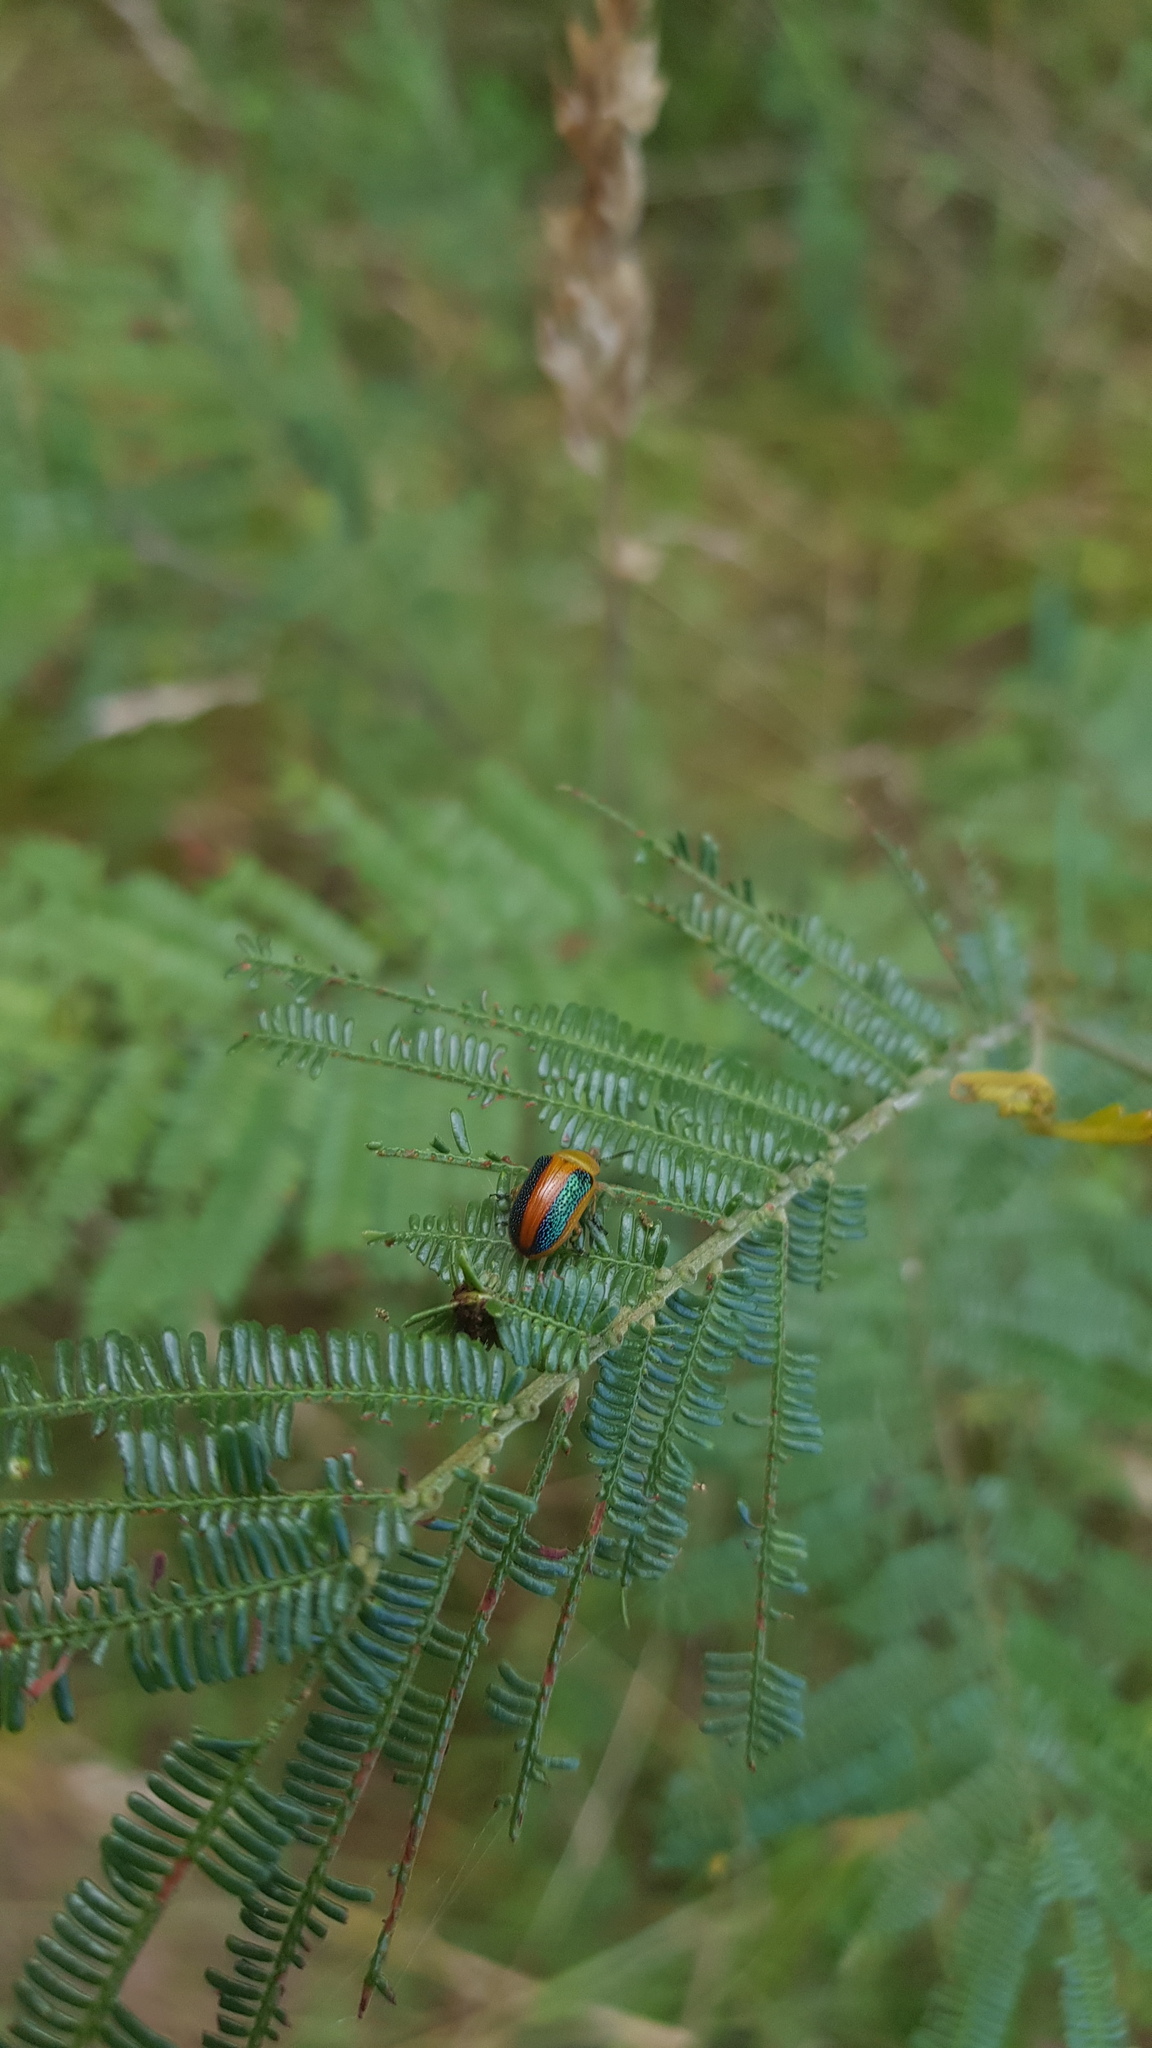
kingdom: Animalia
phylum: Arthropoda
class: Insecta
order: Coleoptera
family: Chrysomelidae
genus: Calomela
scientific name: Calomela
